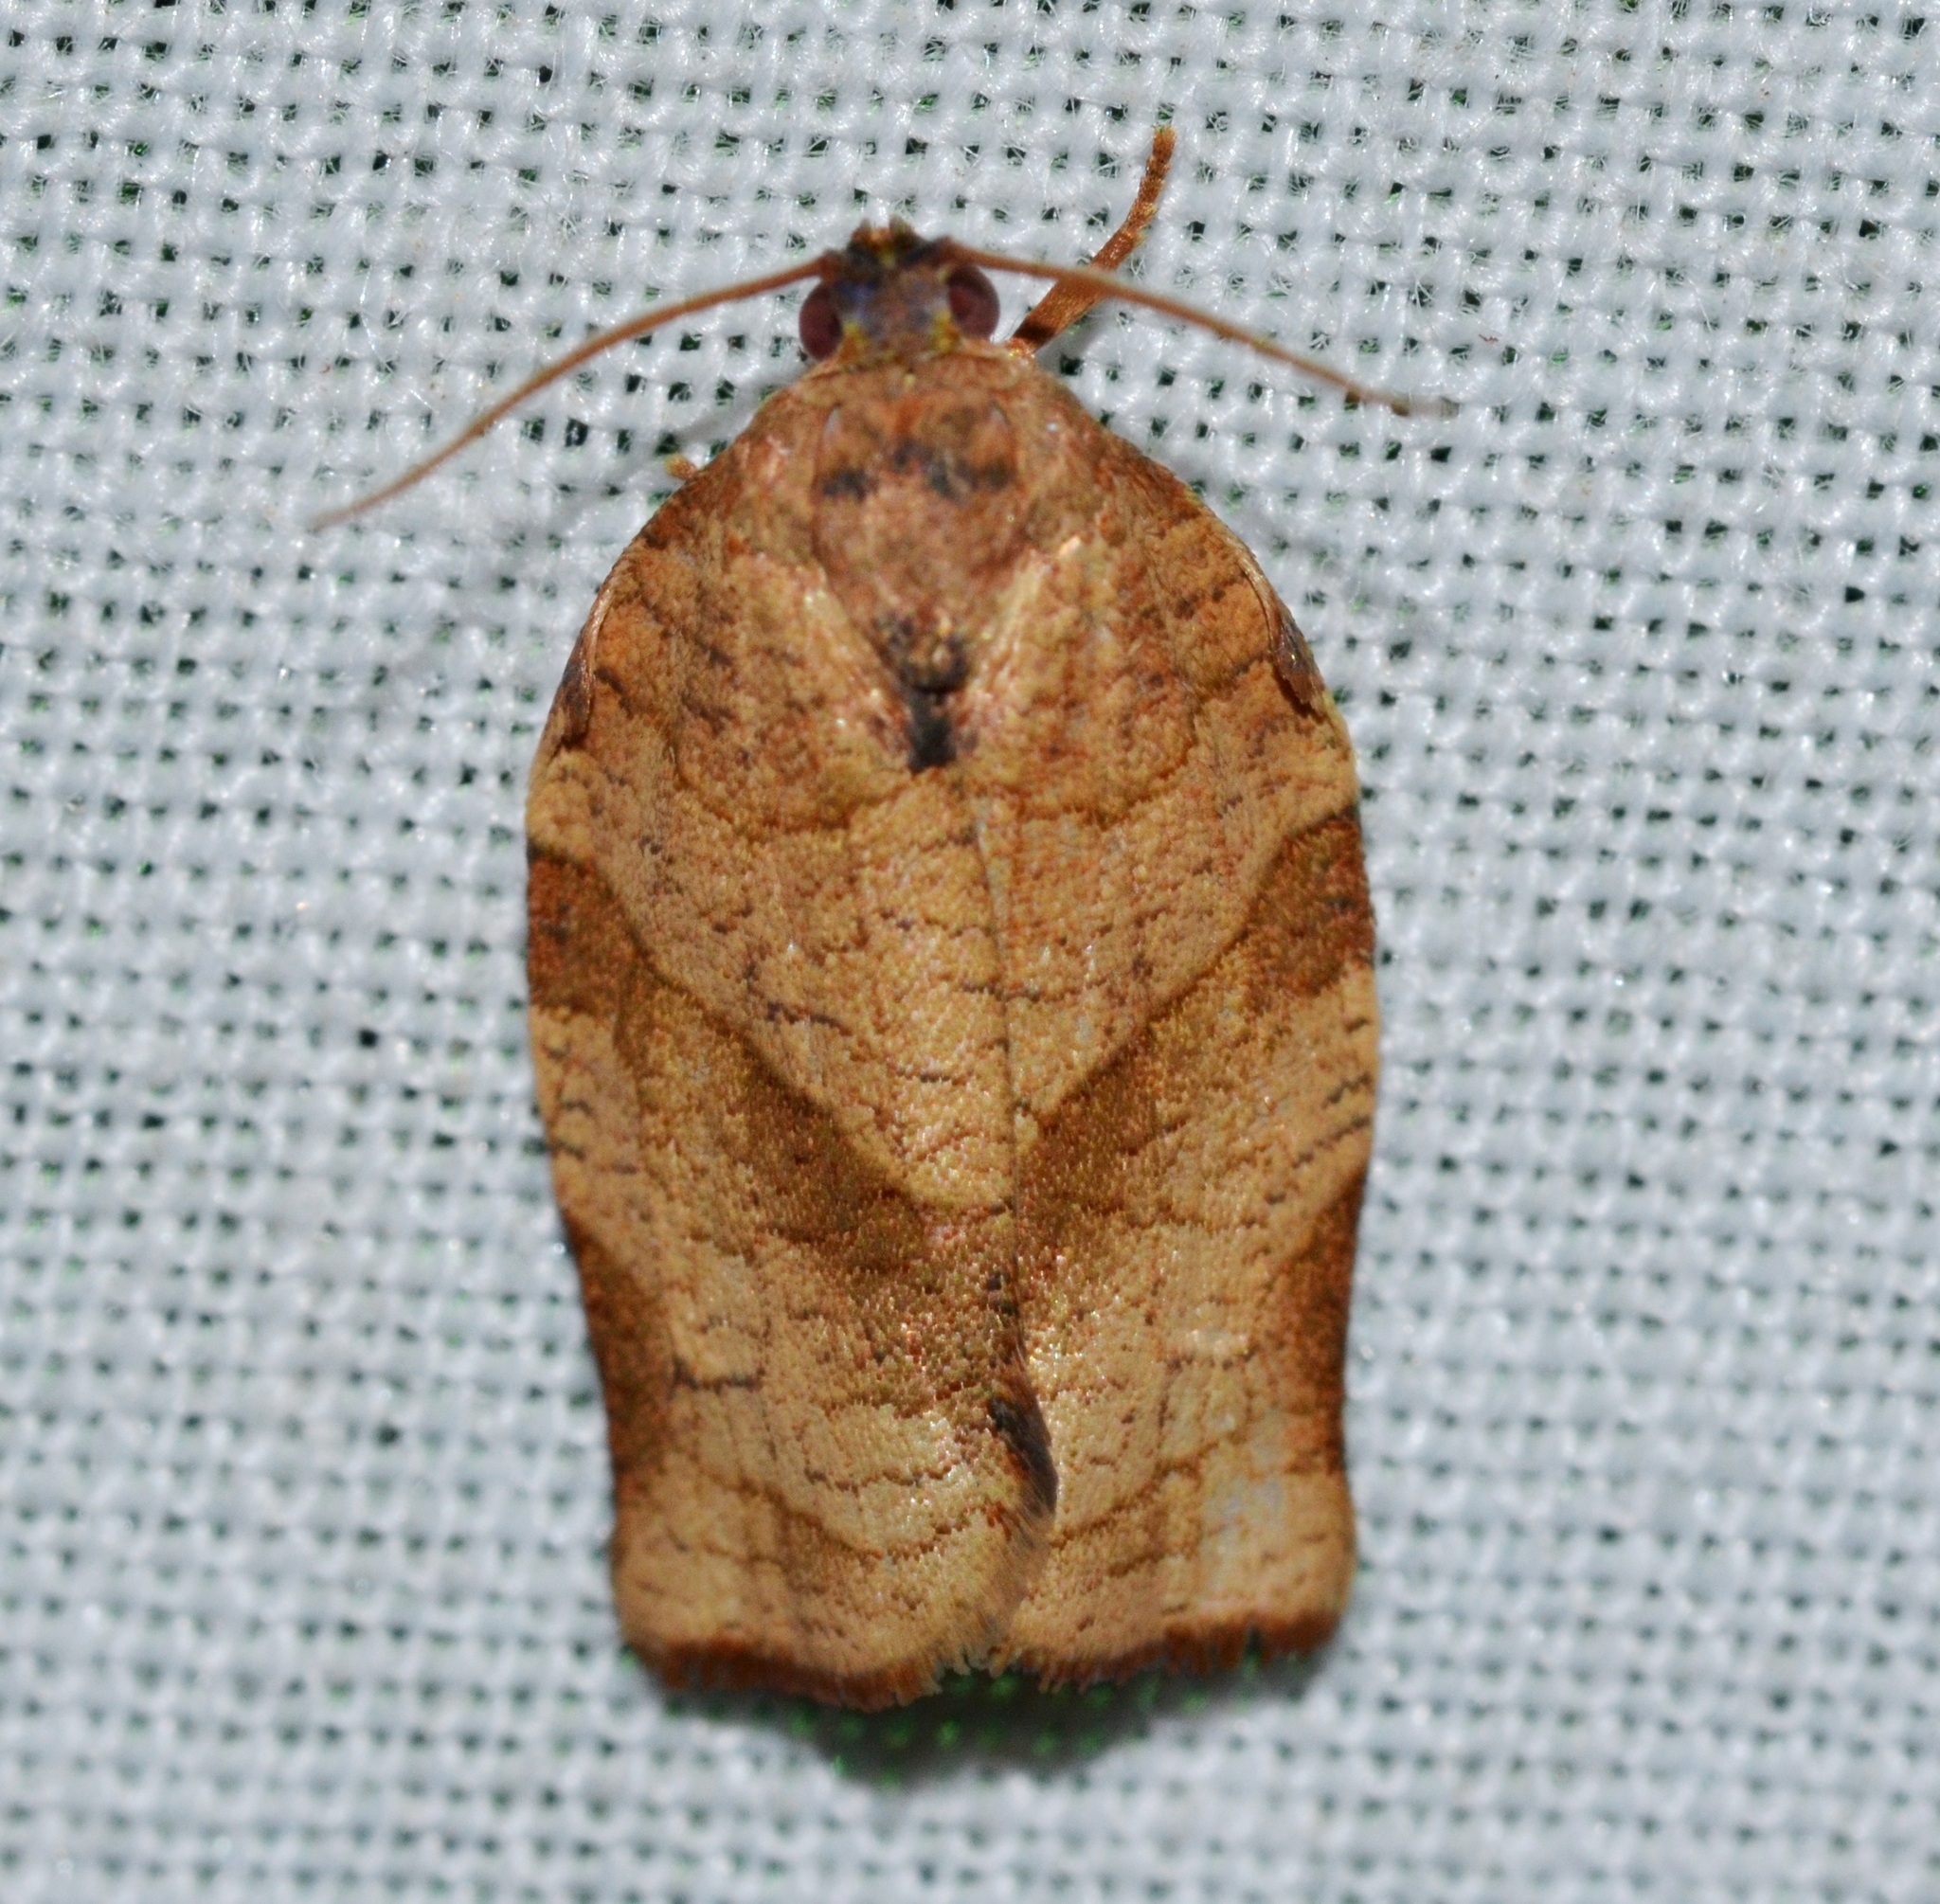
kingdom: Animalia
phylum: Arthropoda
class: Insecta
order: Lepidoptera
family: Tortricidae
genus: Choristoneura
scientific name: Choristoneura rosaceana
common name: Oblique-banded leafroller moth
